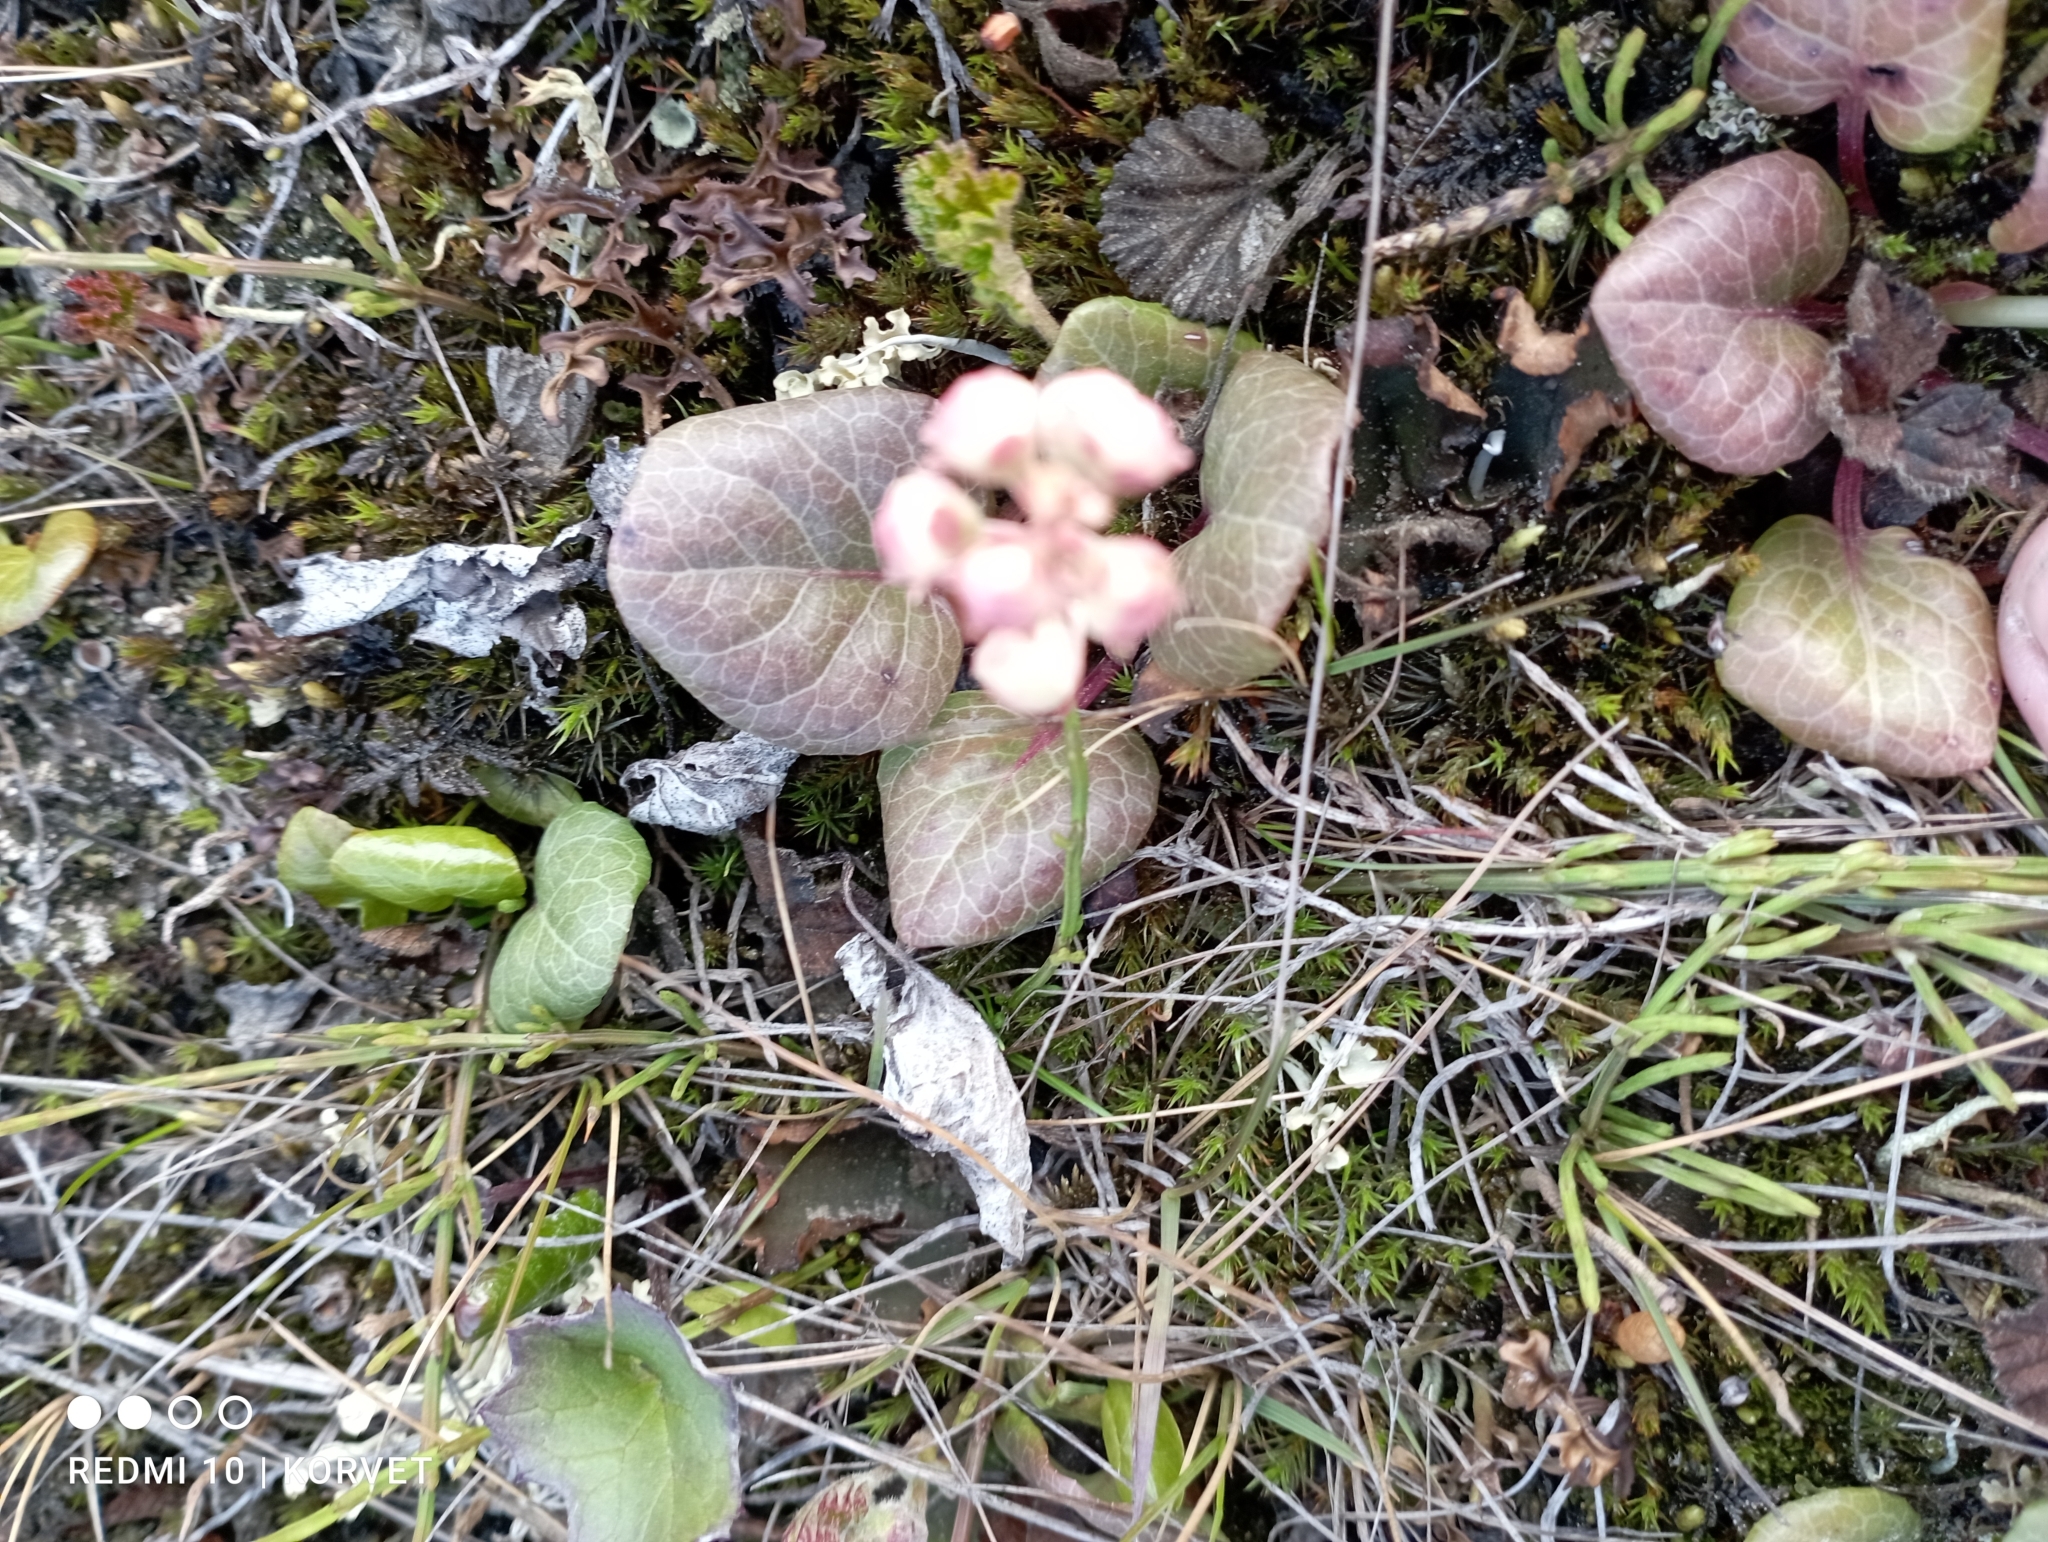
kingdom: Plantae
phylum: Tracheophyta
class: Magnoliopsida
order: Ericales
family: Ericaceae
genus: Pyrola
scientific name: Pyrola grandiflora
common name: Arctic pyrola
